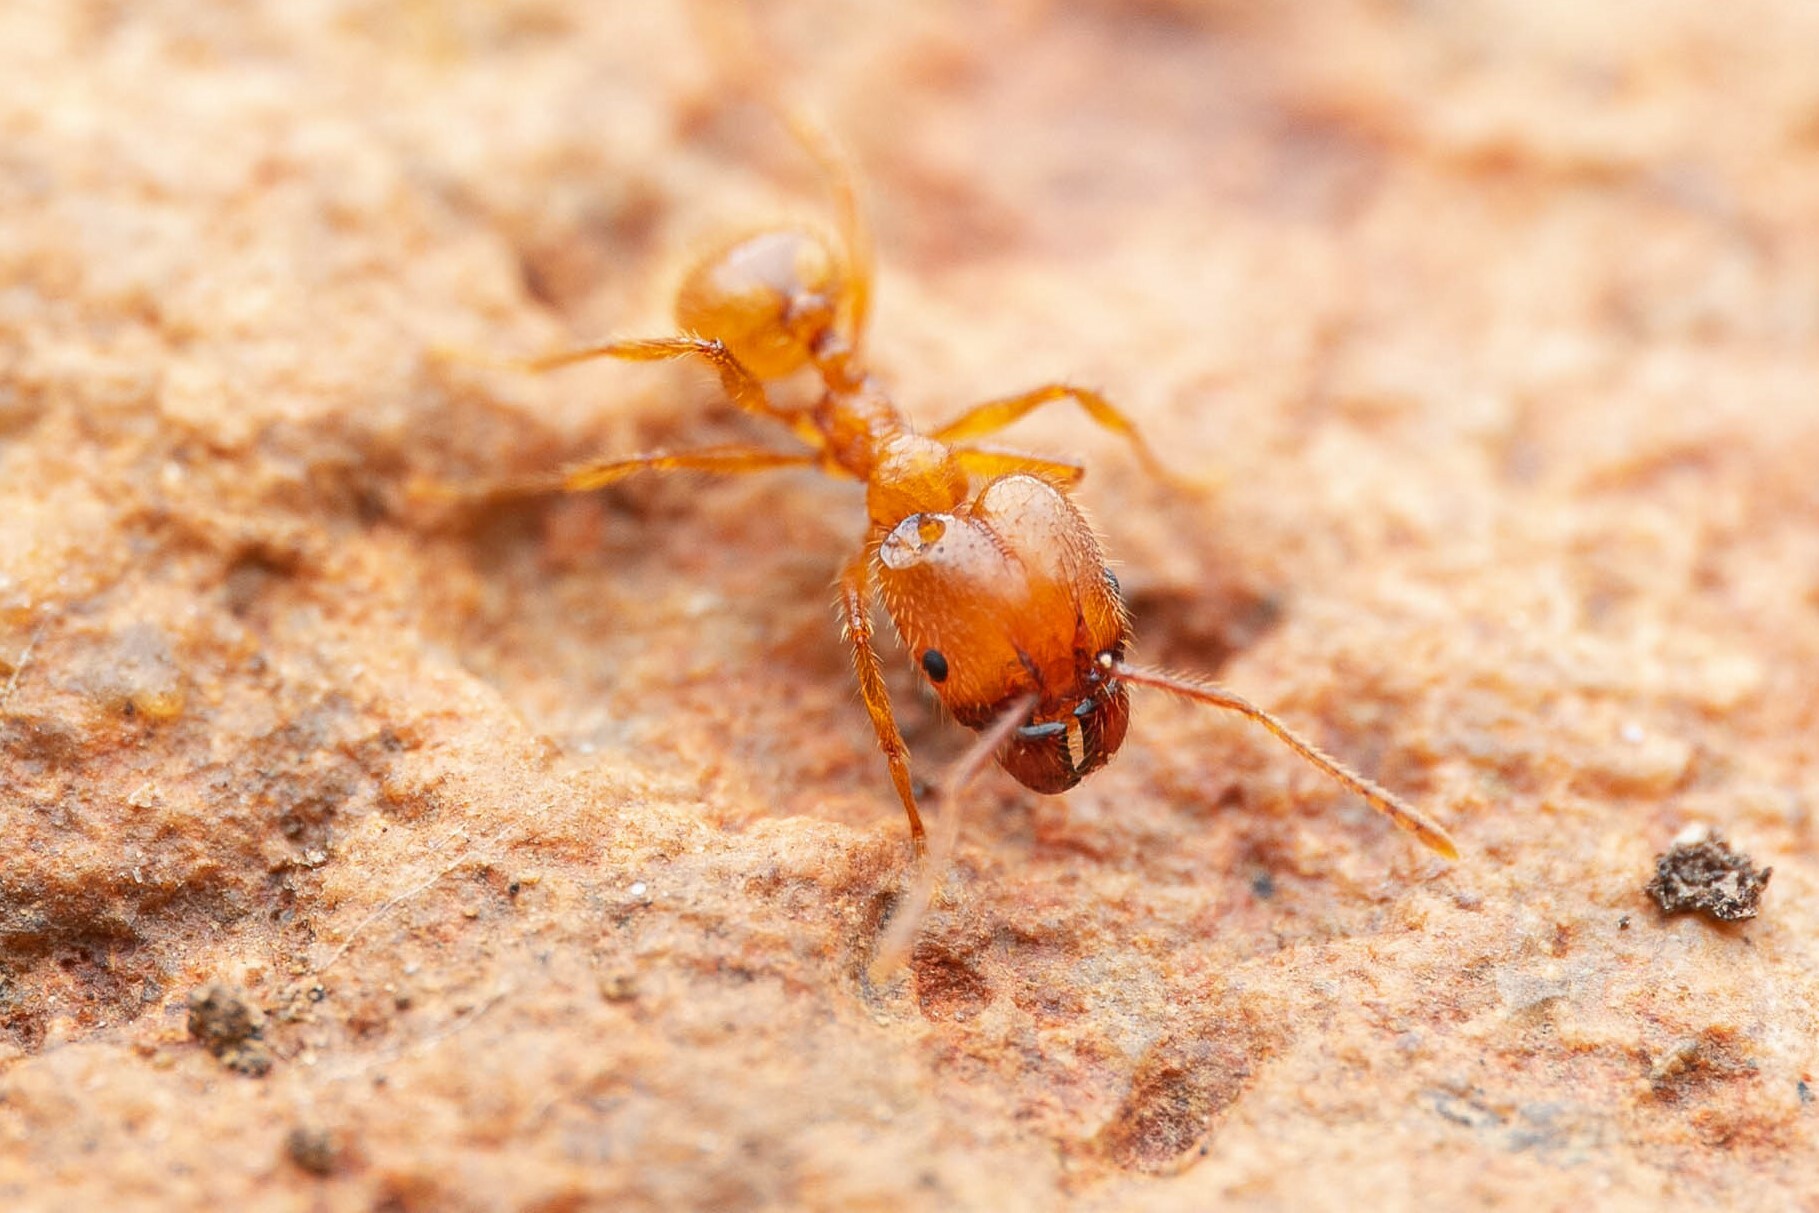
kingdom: Animalia
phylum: Arthropoda
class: Insecta
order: Hymenoptera
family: Formicidae
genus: Pheidole
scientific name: Pheidole hyatti
